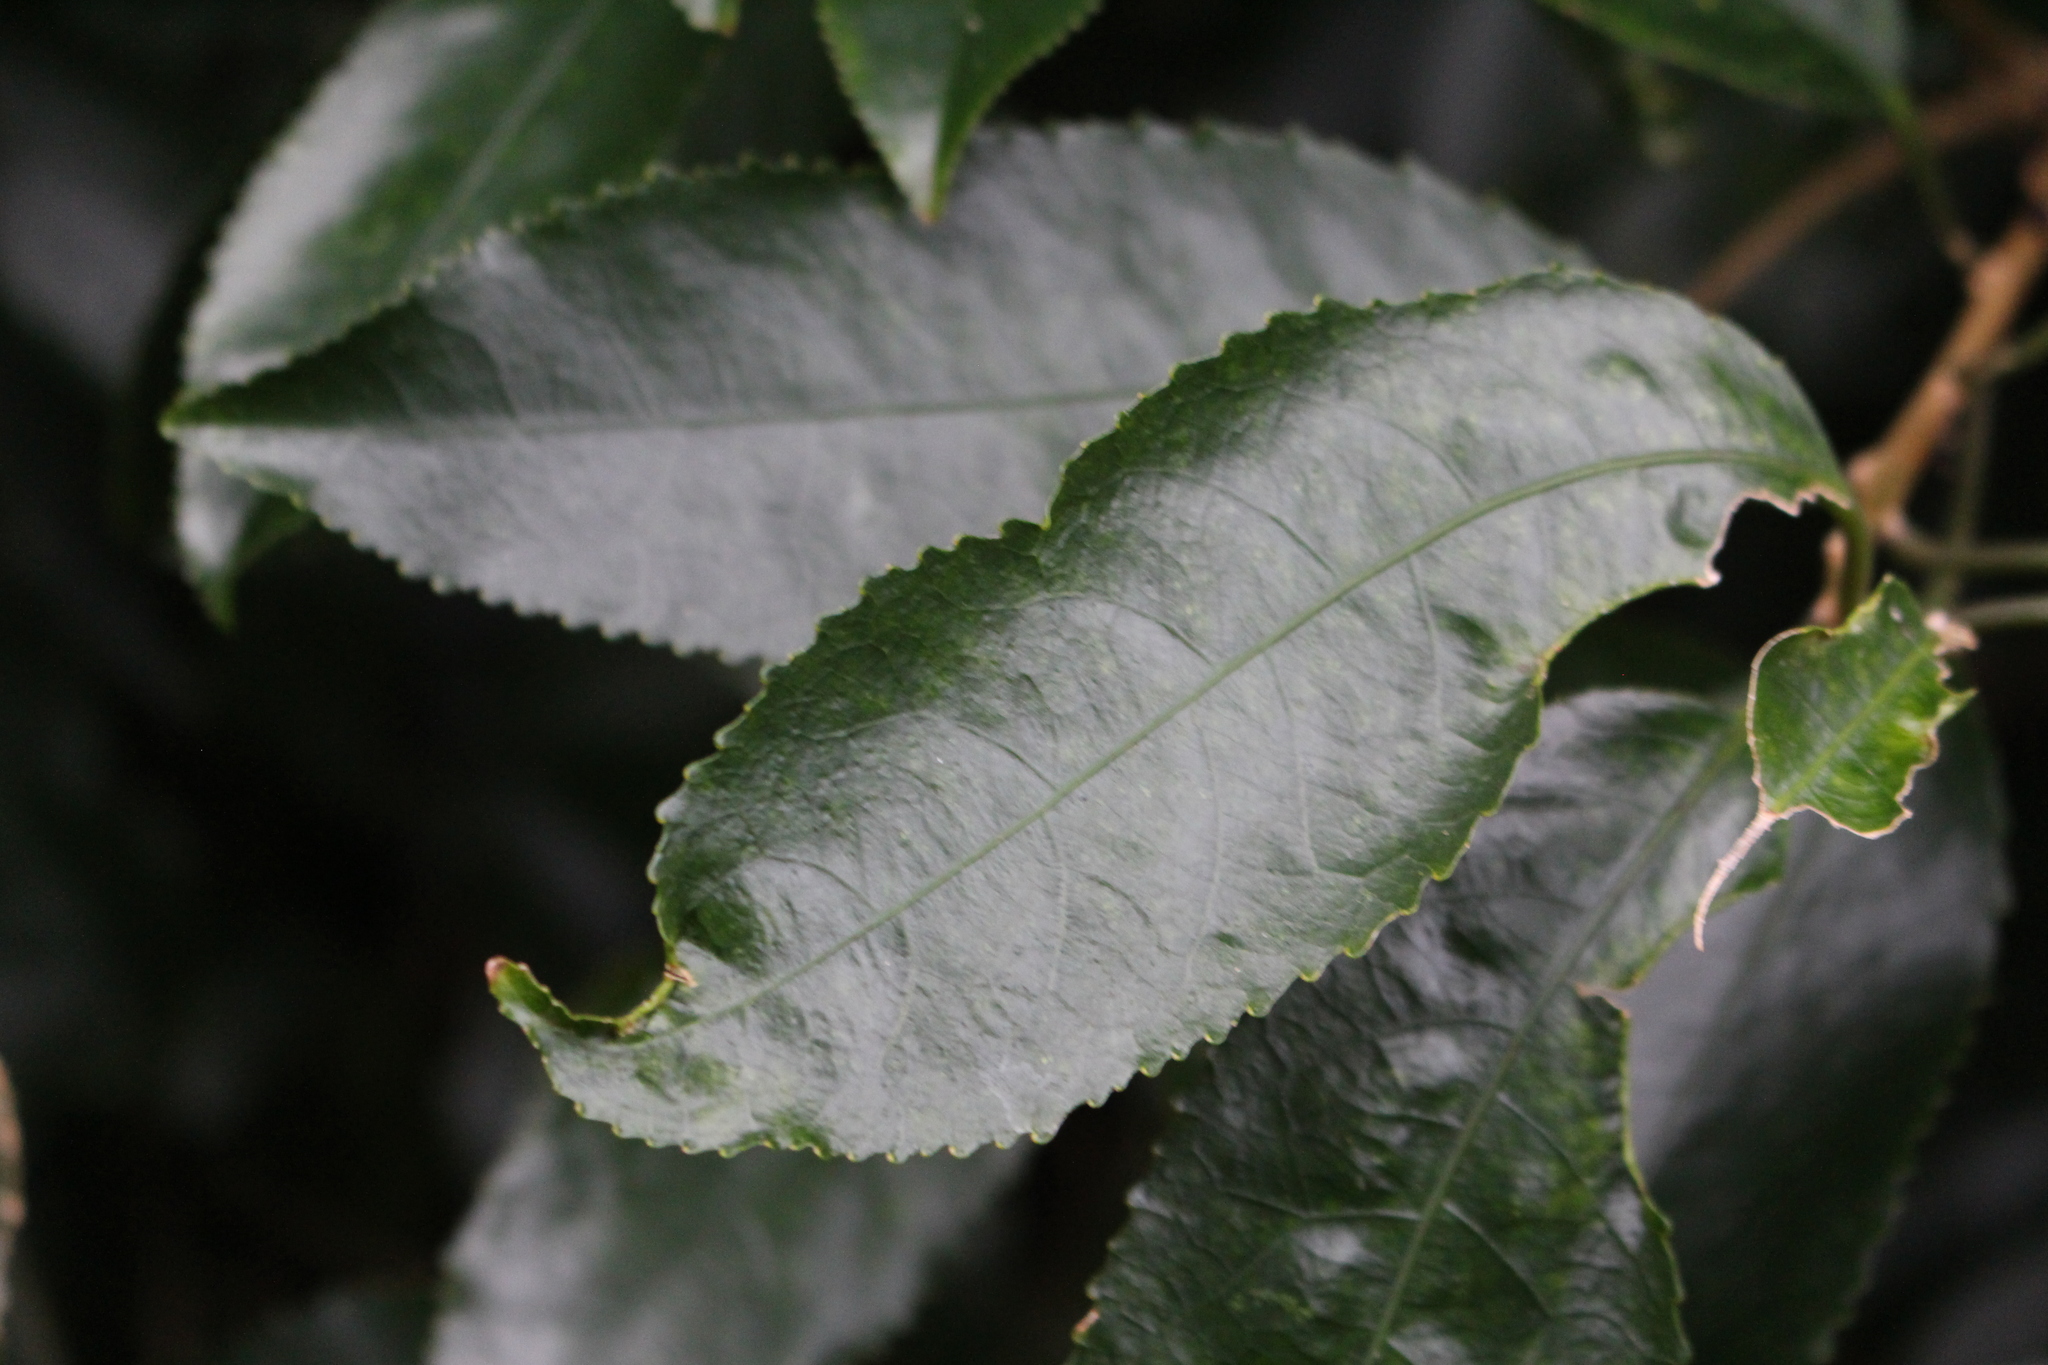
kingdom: Plantae
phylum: Tracheophyta
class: Magnoliopsida
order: Malpighiales
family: Violaceae
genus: Melicytus
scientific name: Melicytus ramiflorus
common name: Mahoe
